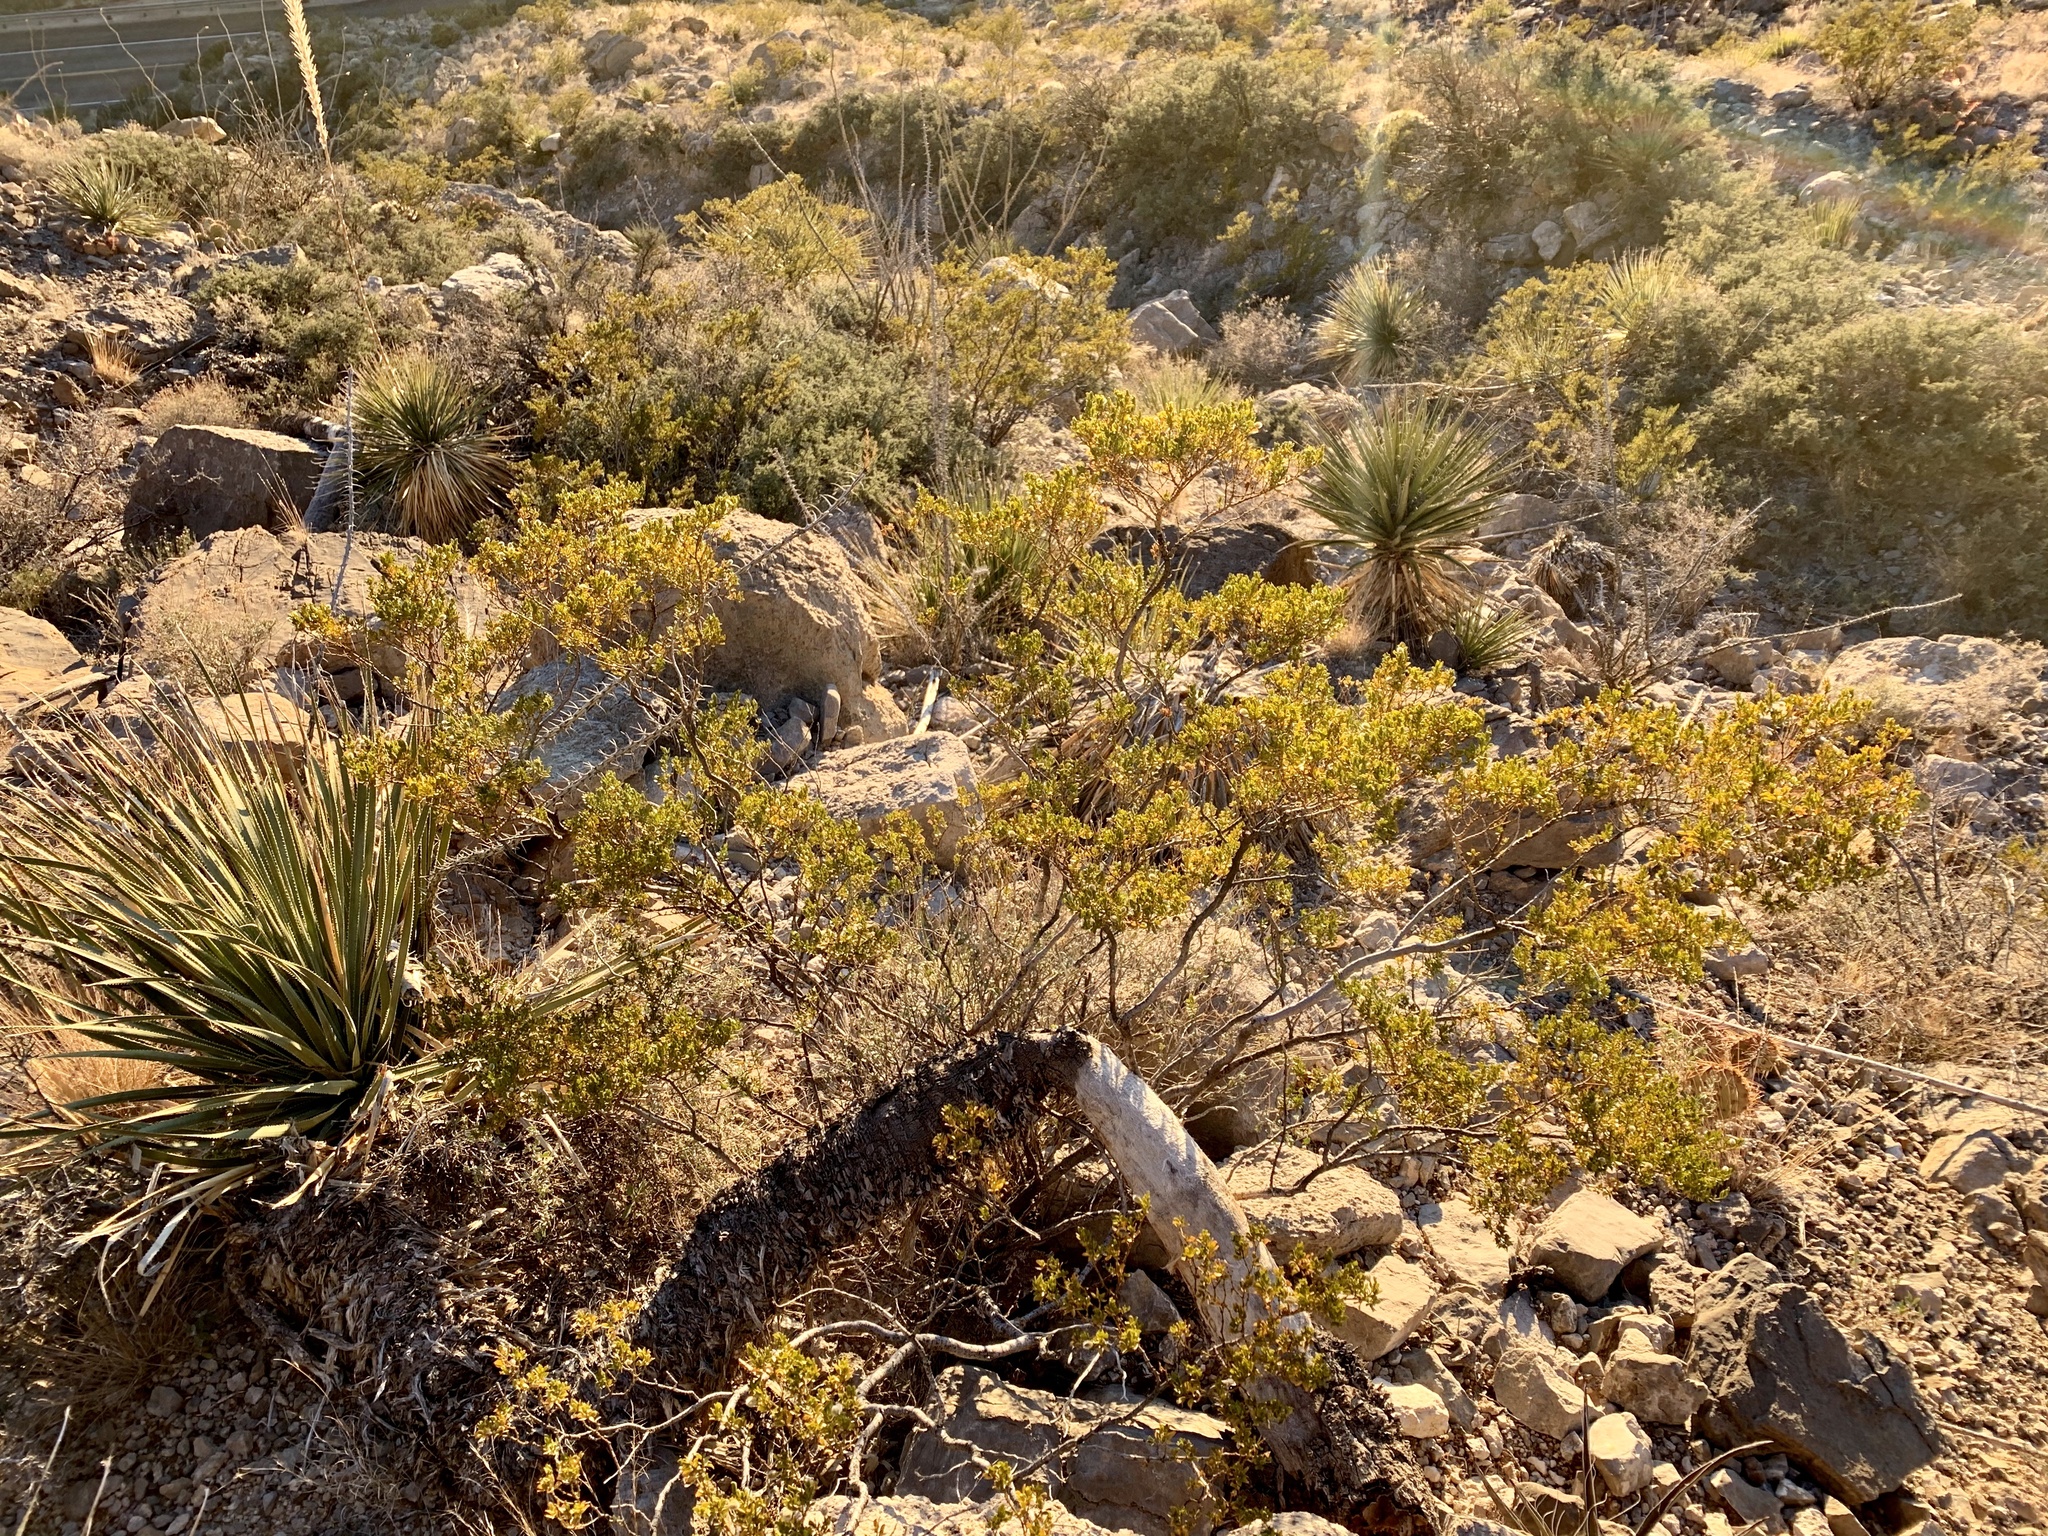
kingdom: Plantae
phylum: Tracheophyta
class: Magnoliopsida
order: Zygophyllales
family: Zygophyllaceae
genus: Larrea
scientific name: Larrea tridentata
